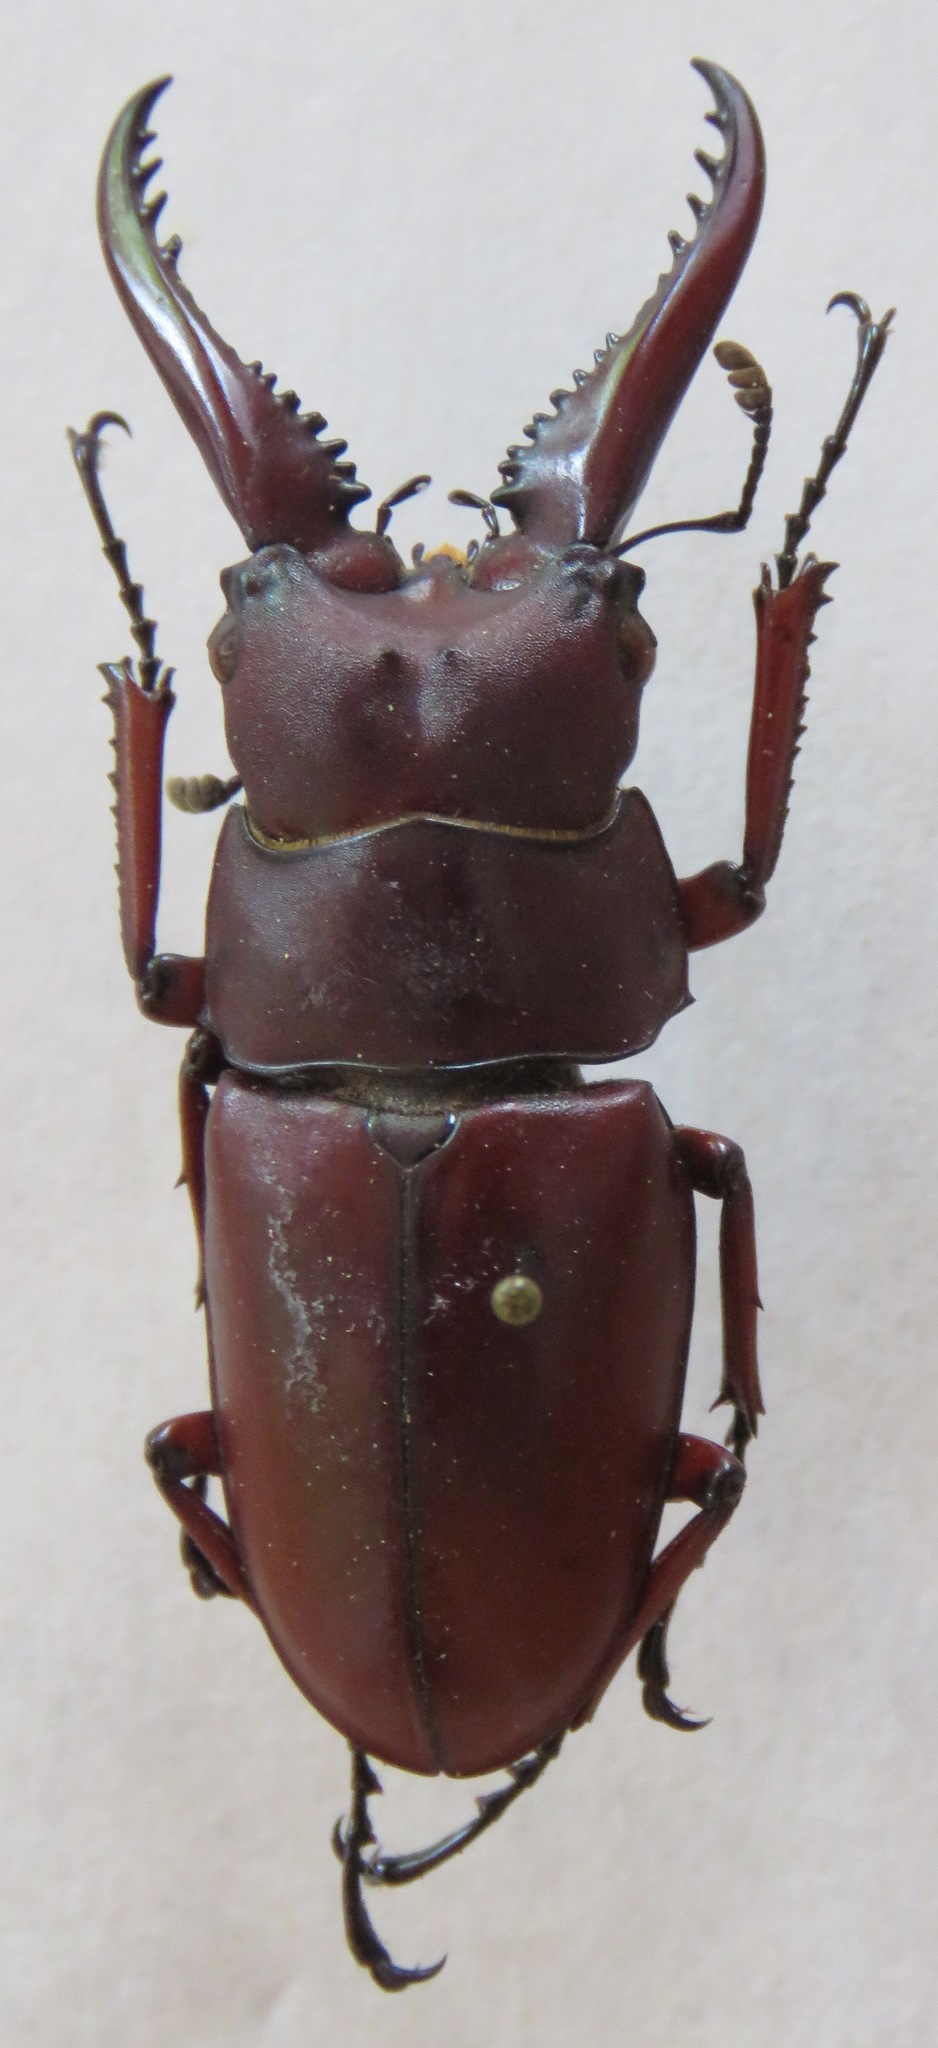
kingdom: Animalia
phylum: Arthropoda
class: Insecta
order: Coleoptera
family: Lucanidae
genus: Prosopocoilus
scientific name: Prosopocoilus astacoides
